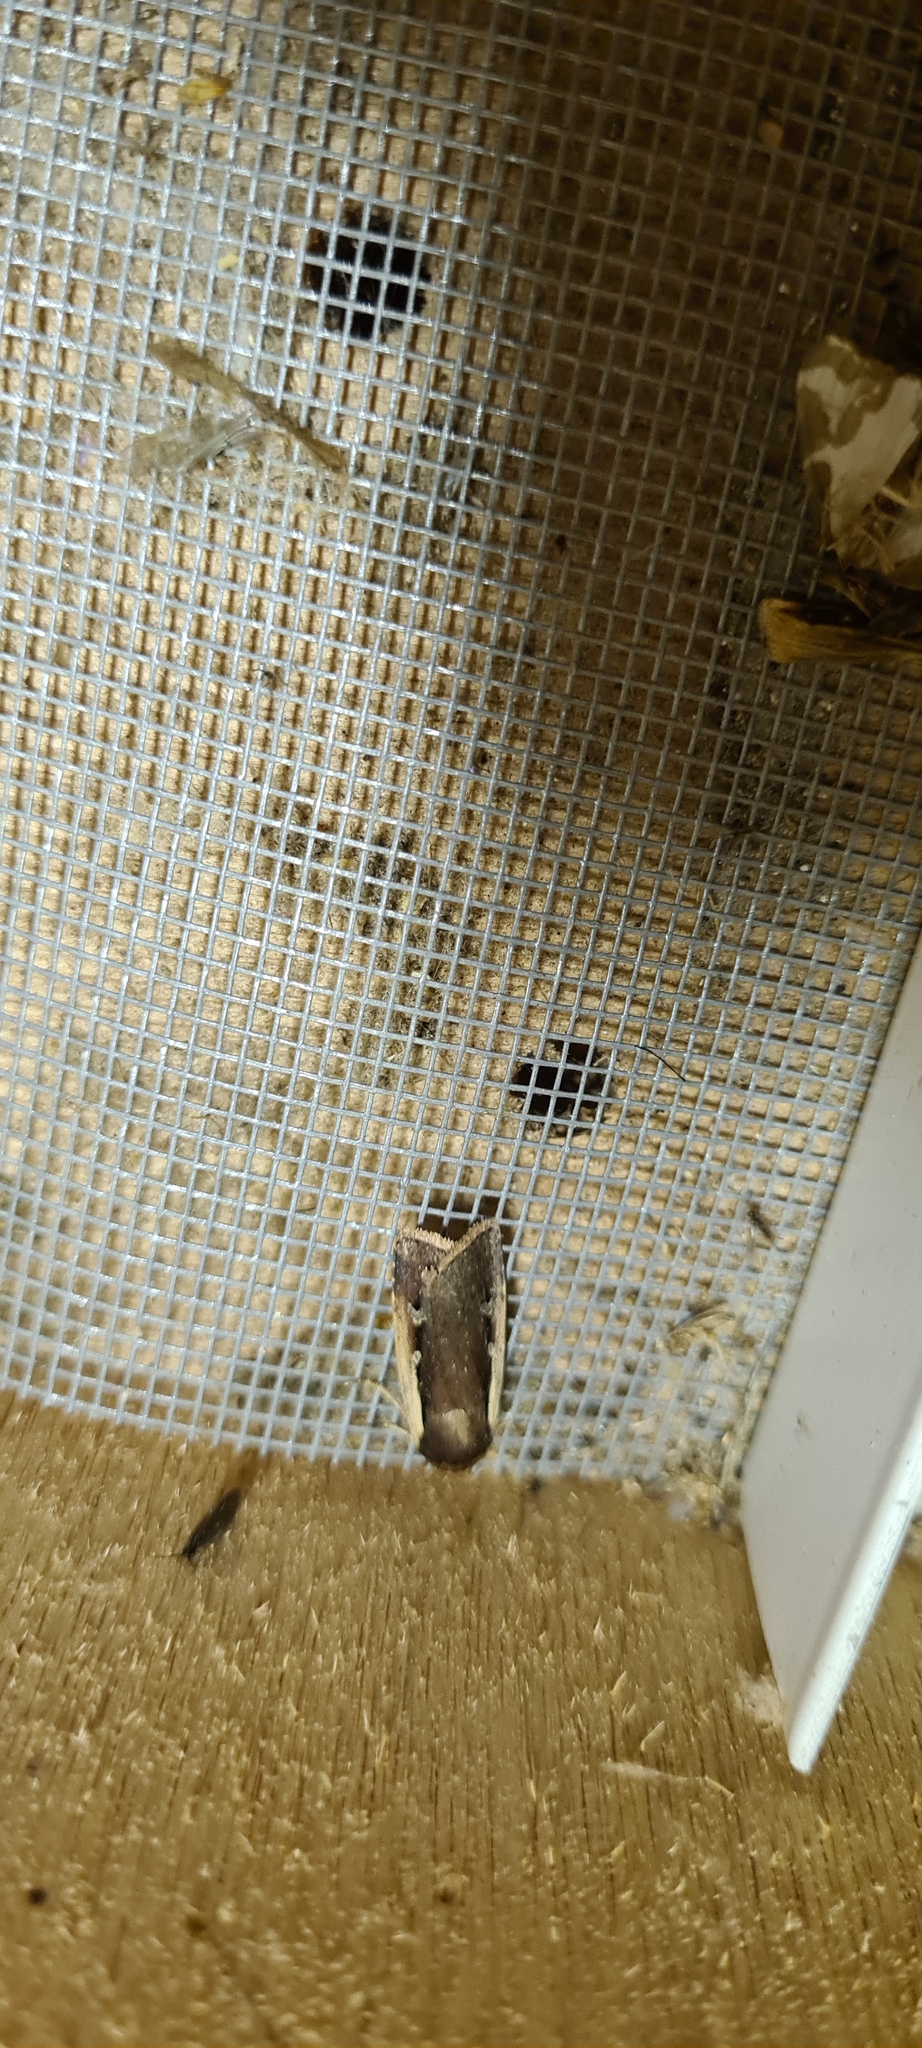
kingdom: Animalia
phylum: Arthropoda
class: Insecta
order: Lepidoptera
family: Noctuidae
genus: Ochropleura
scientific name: Ochropleura plecta
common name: Flame shoulder
